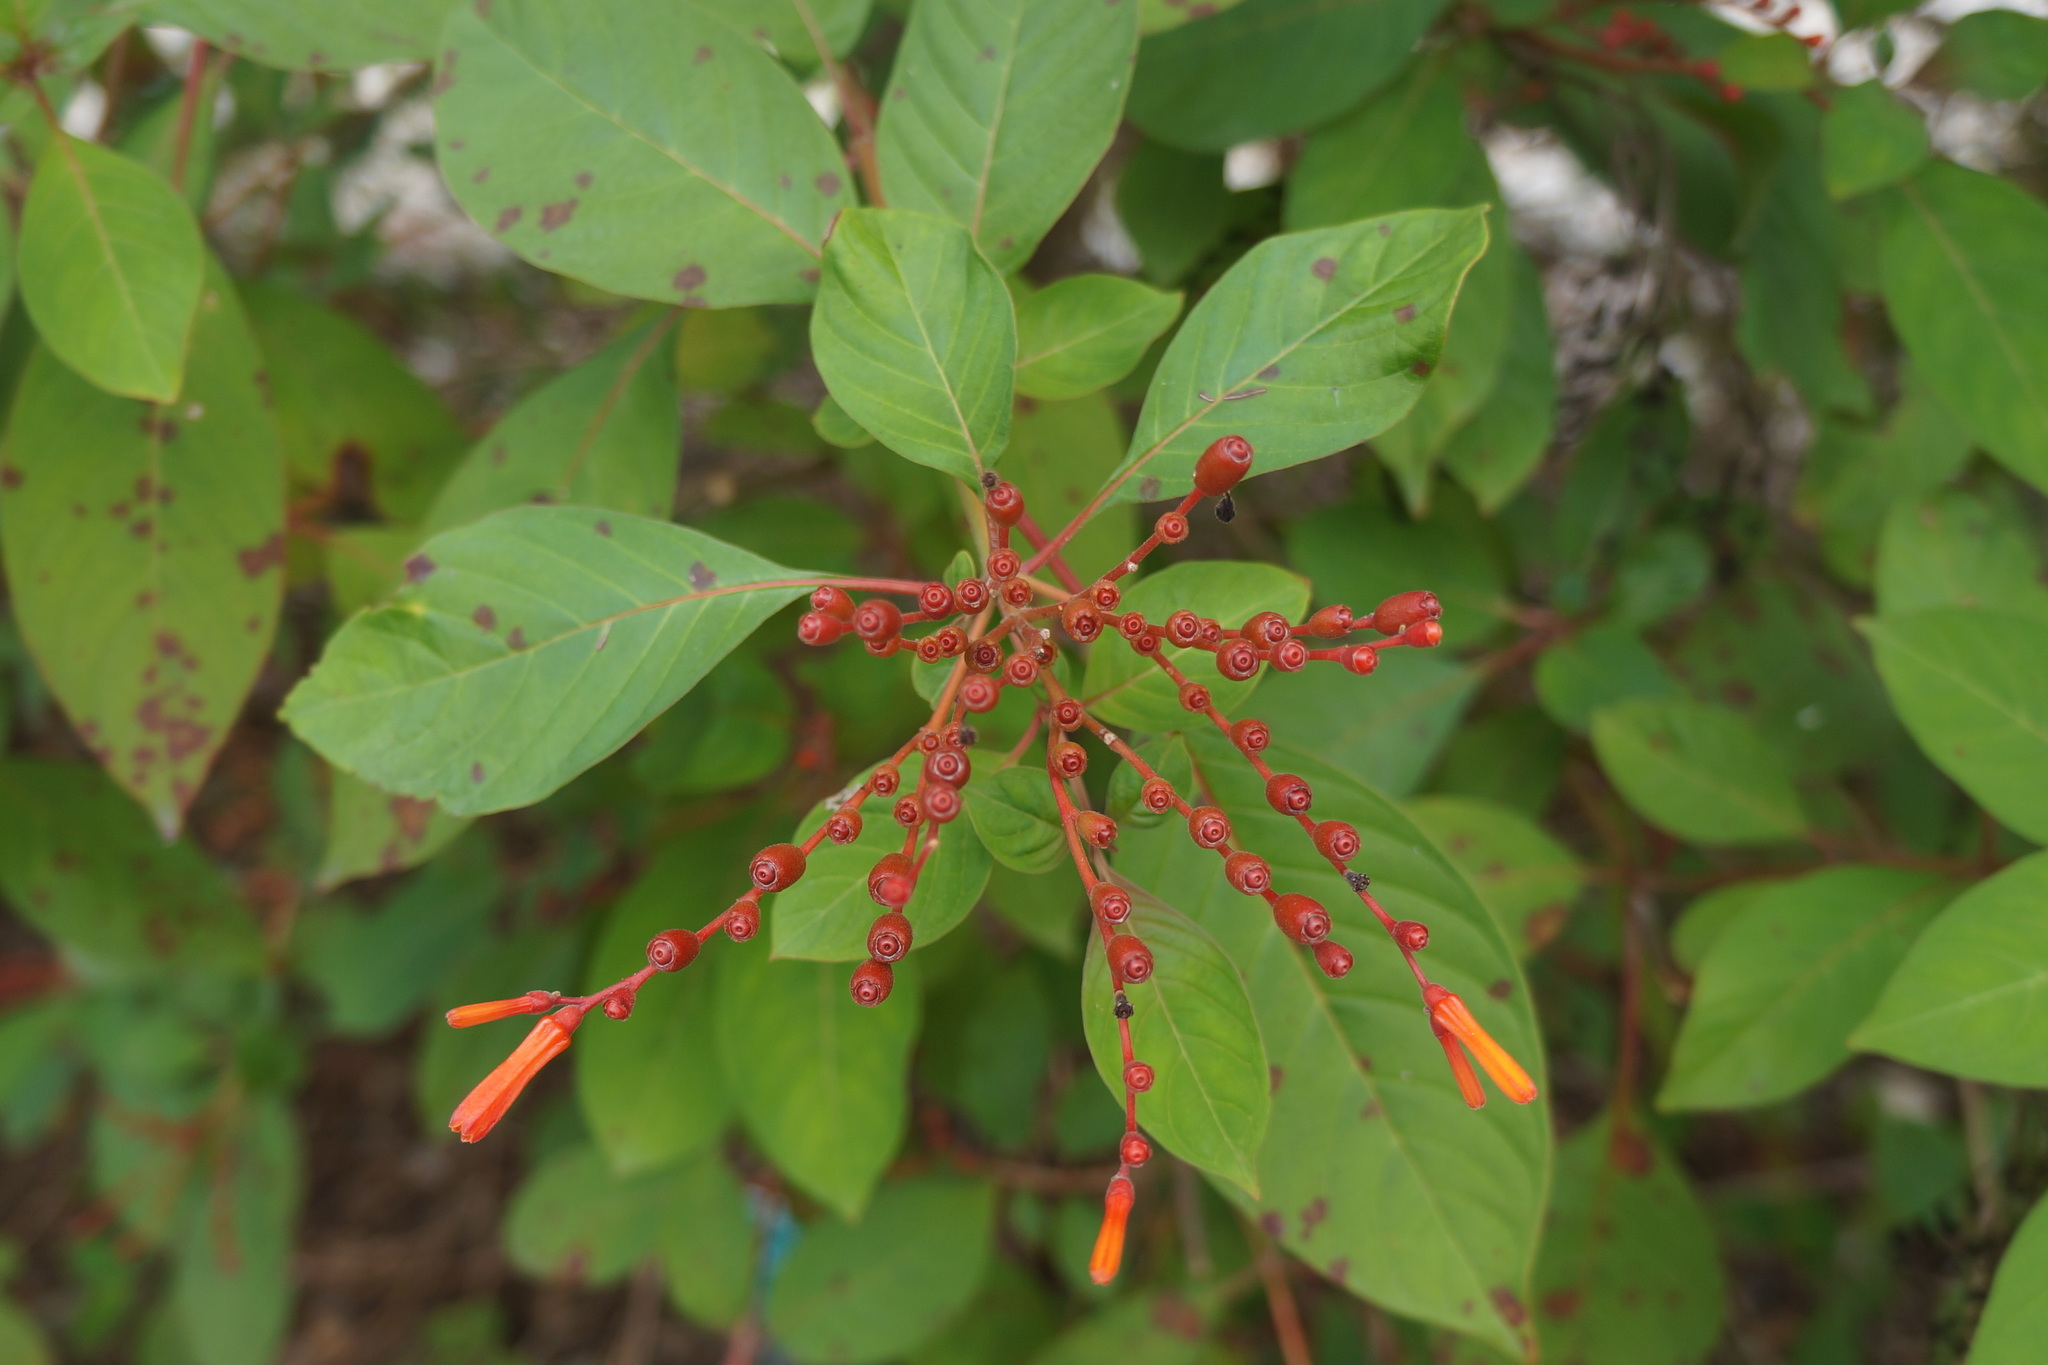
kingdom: Plantae
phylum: Tracheophyta
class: Magnoliopsida
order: Gentianales
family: Rubiaceae
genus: Hamelia
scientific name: Hamelia patens
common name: Redhead
